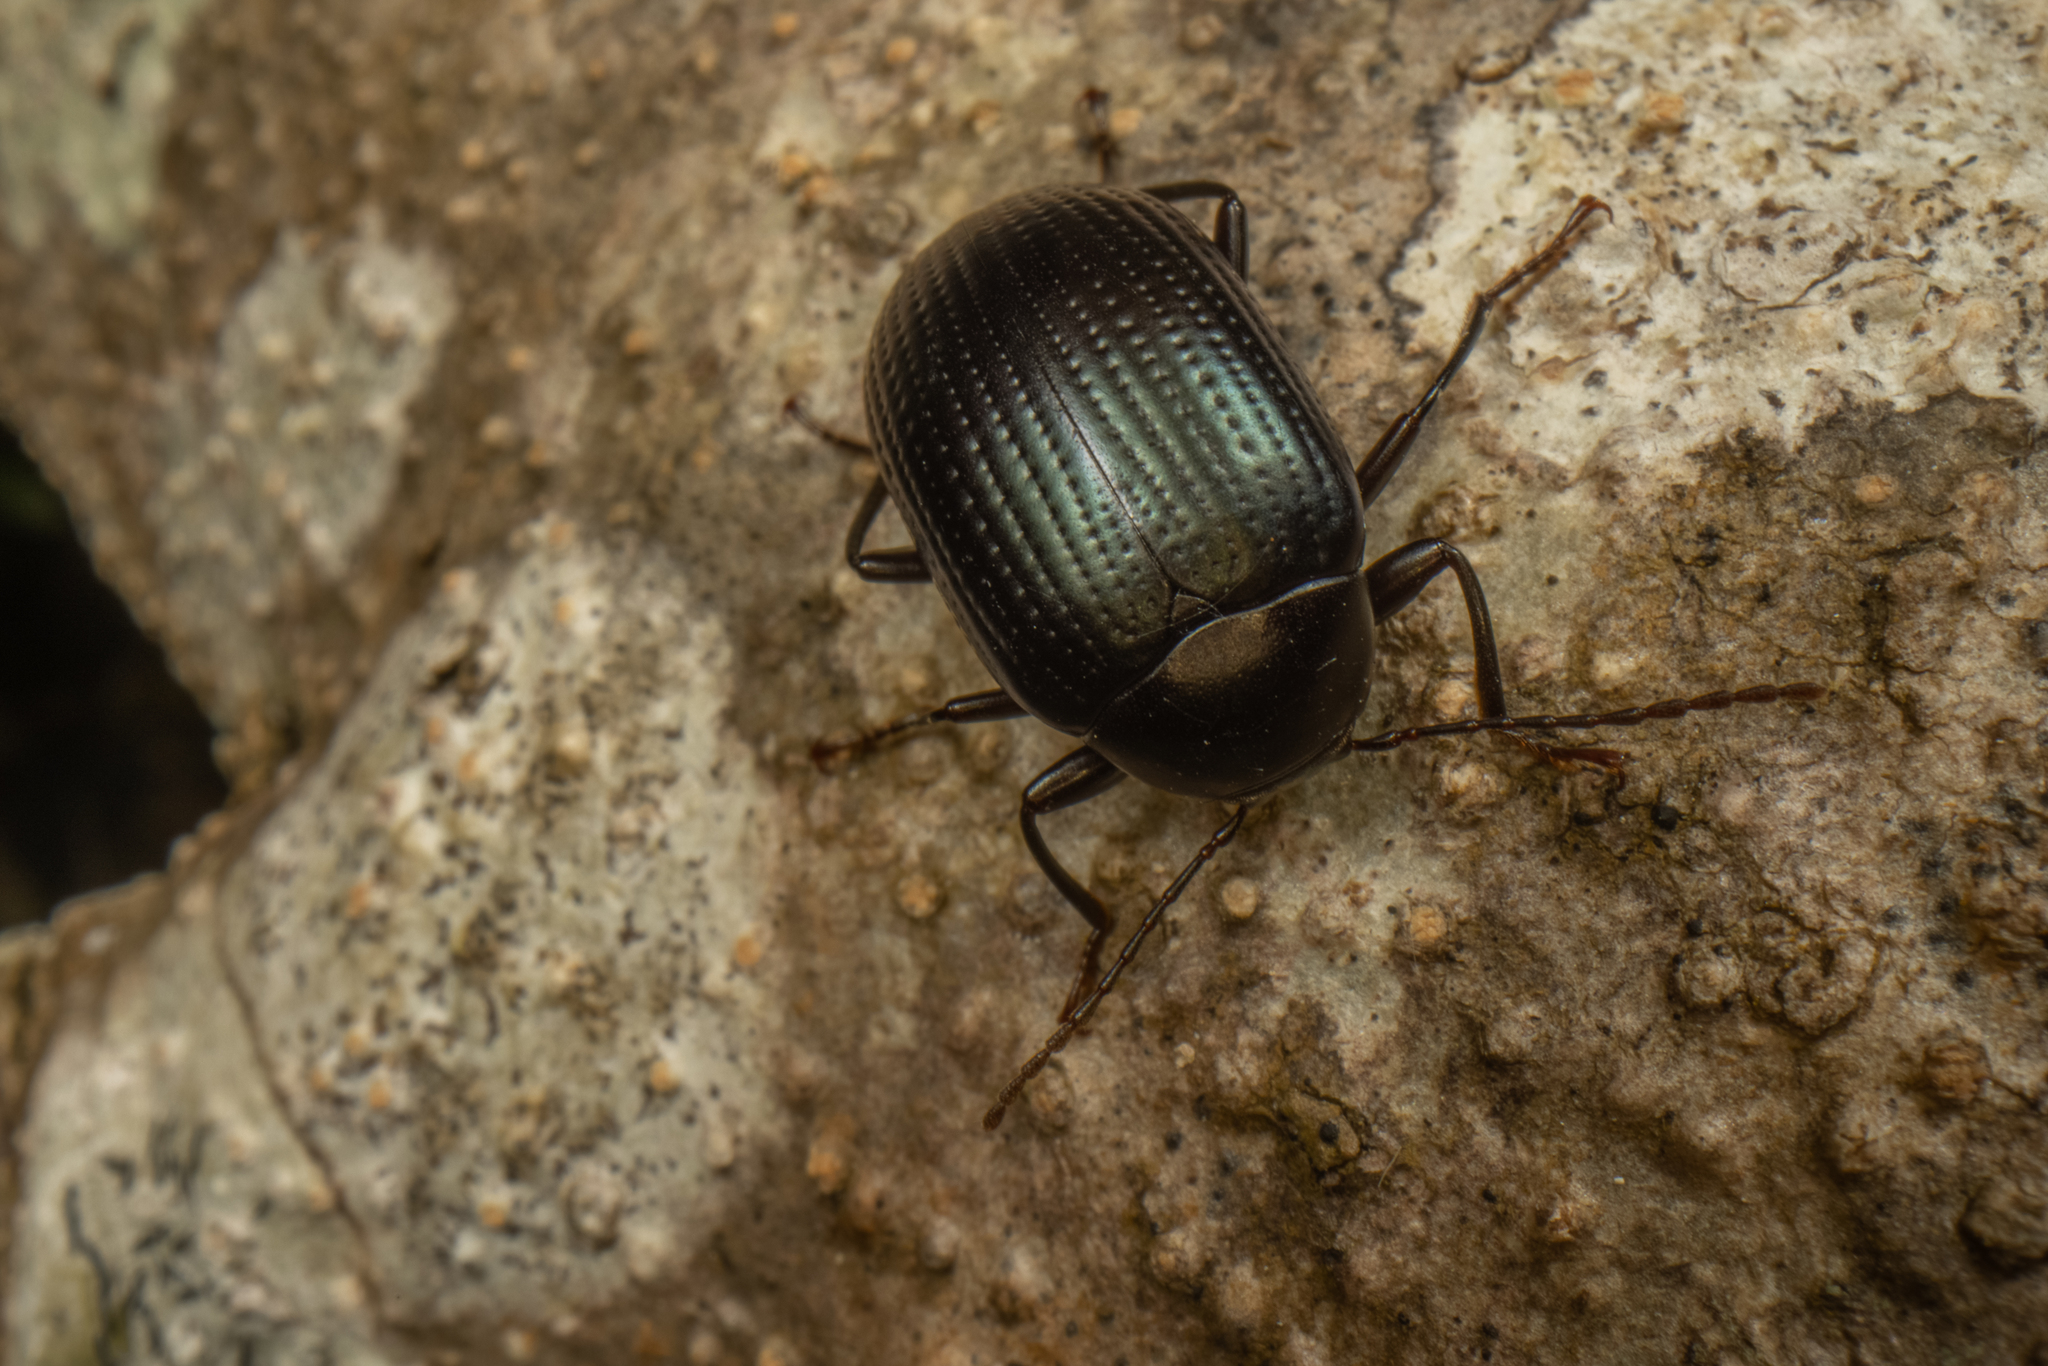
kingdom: Animalia
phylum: Arthropoda
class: Insecta
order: Coleoptera
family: Tenebrionidae
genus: Amarygmus
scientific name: Amarygmus
